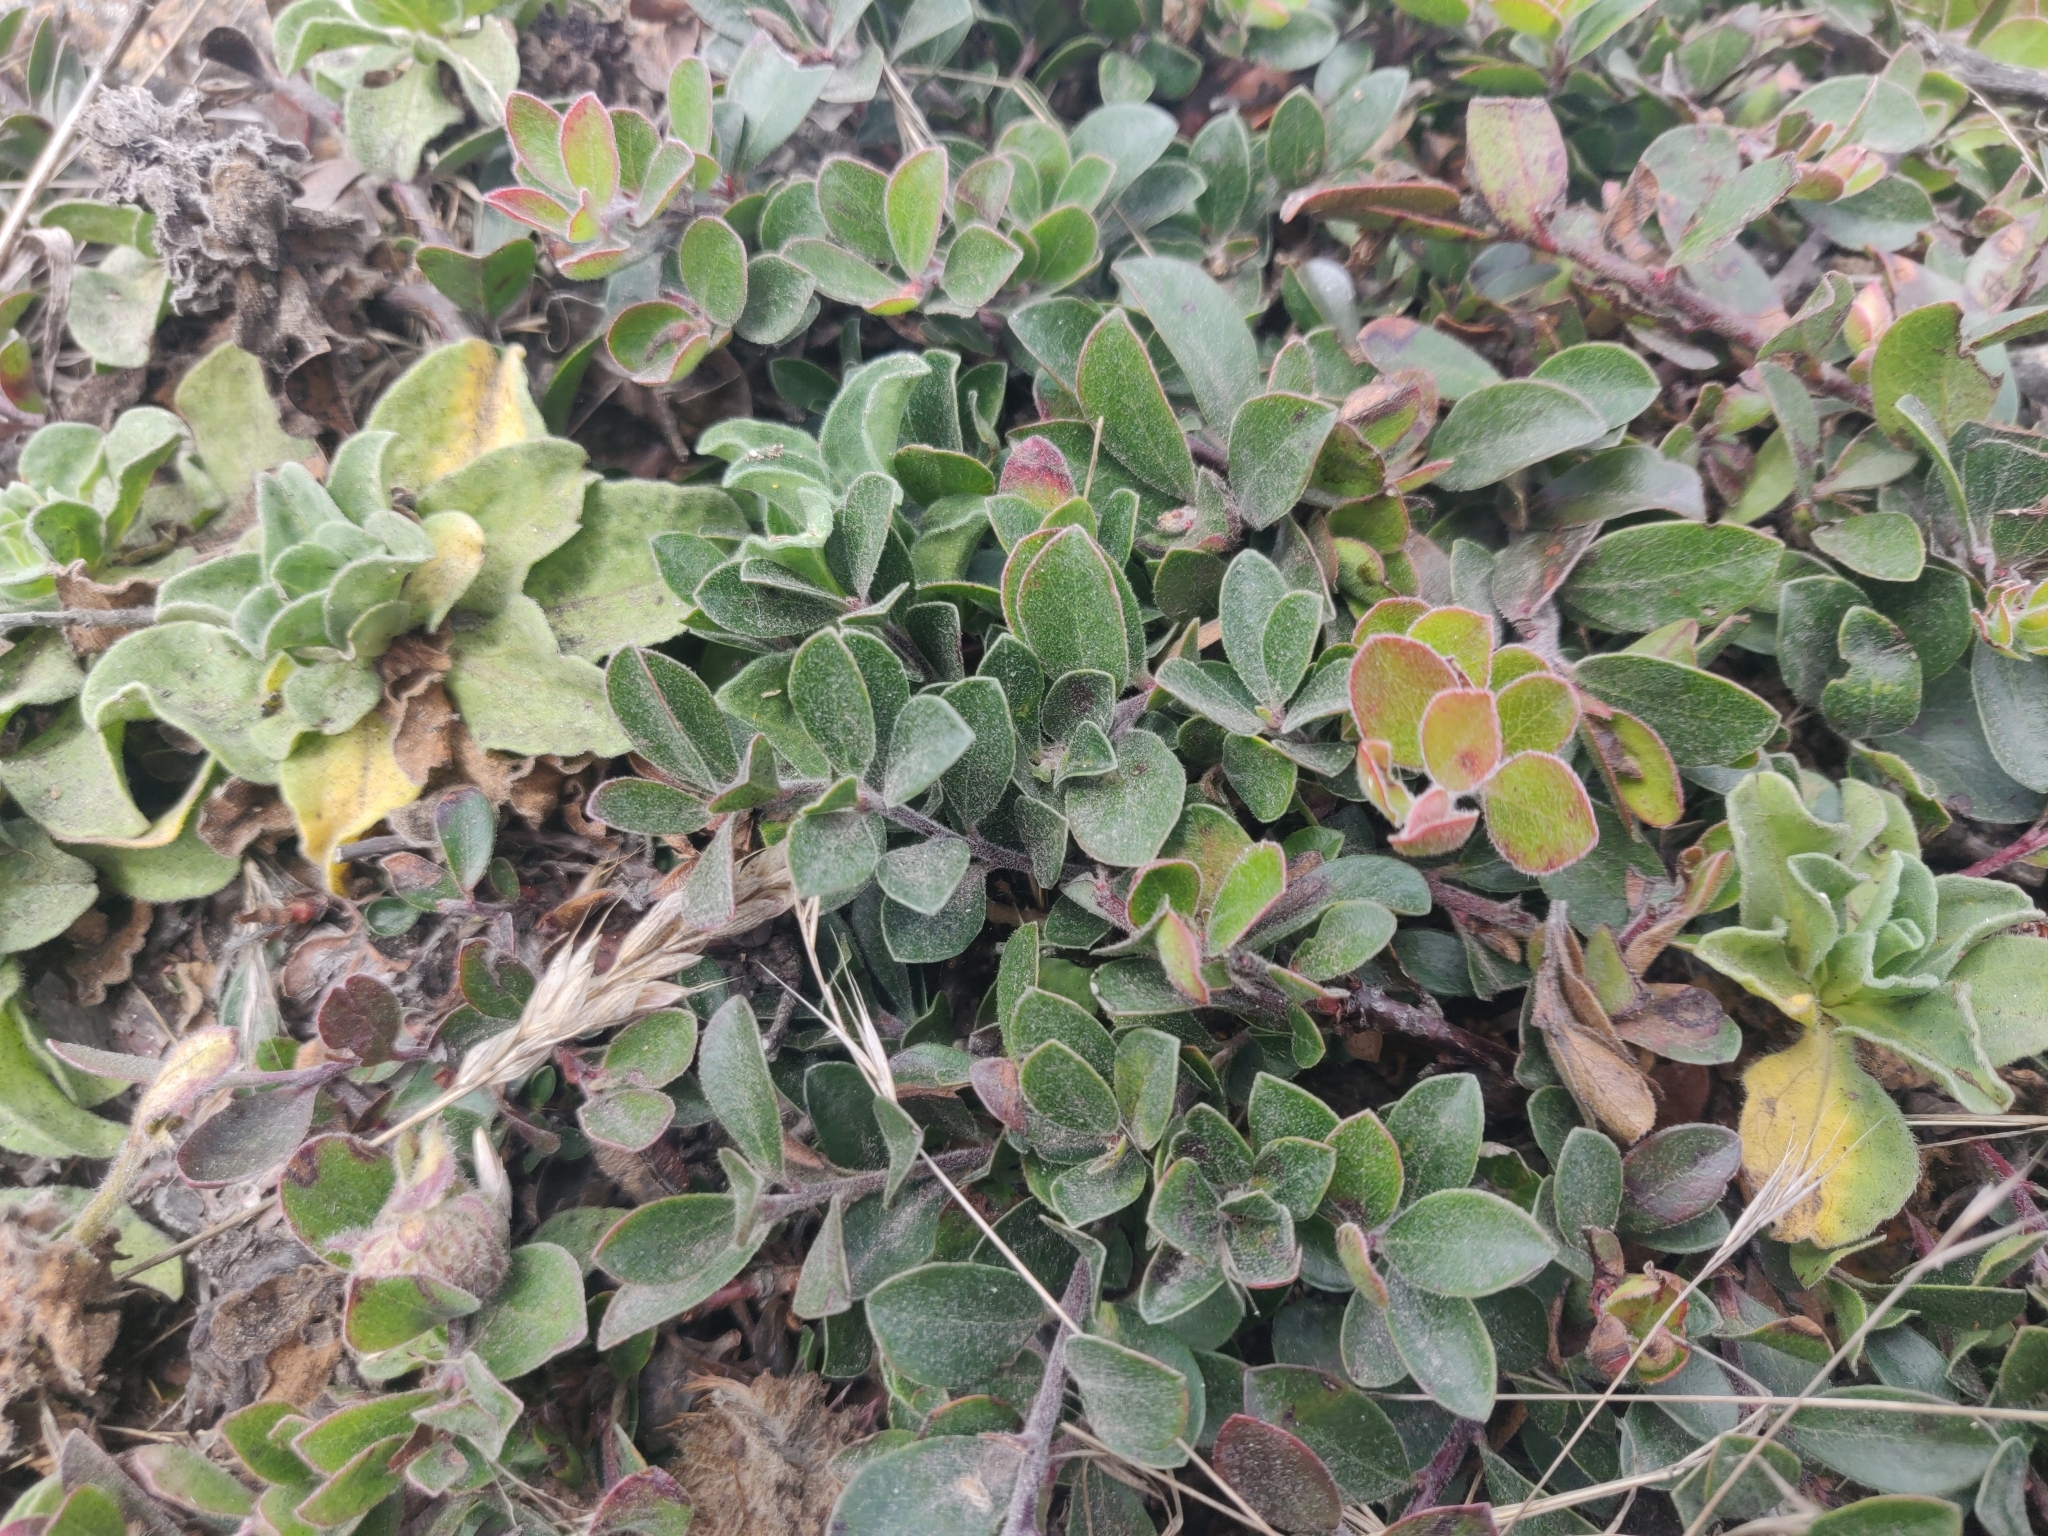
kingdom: Plantae
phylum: Tracheophyta
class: Magnoliopsida
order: Ericales
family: Ericaceae
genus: Arctostaphylos
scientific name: Arctostaphylos uva-ursi
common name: Bearberry
